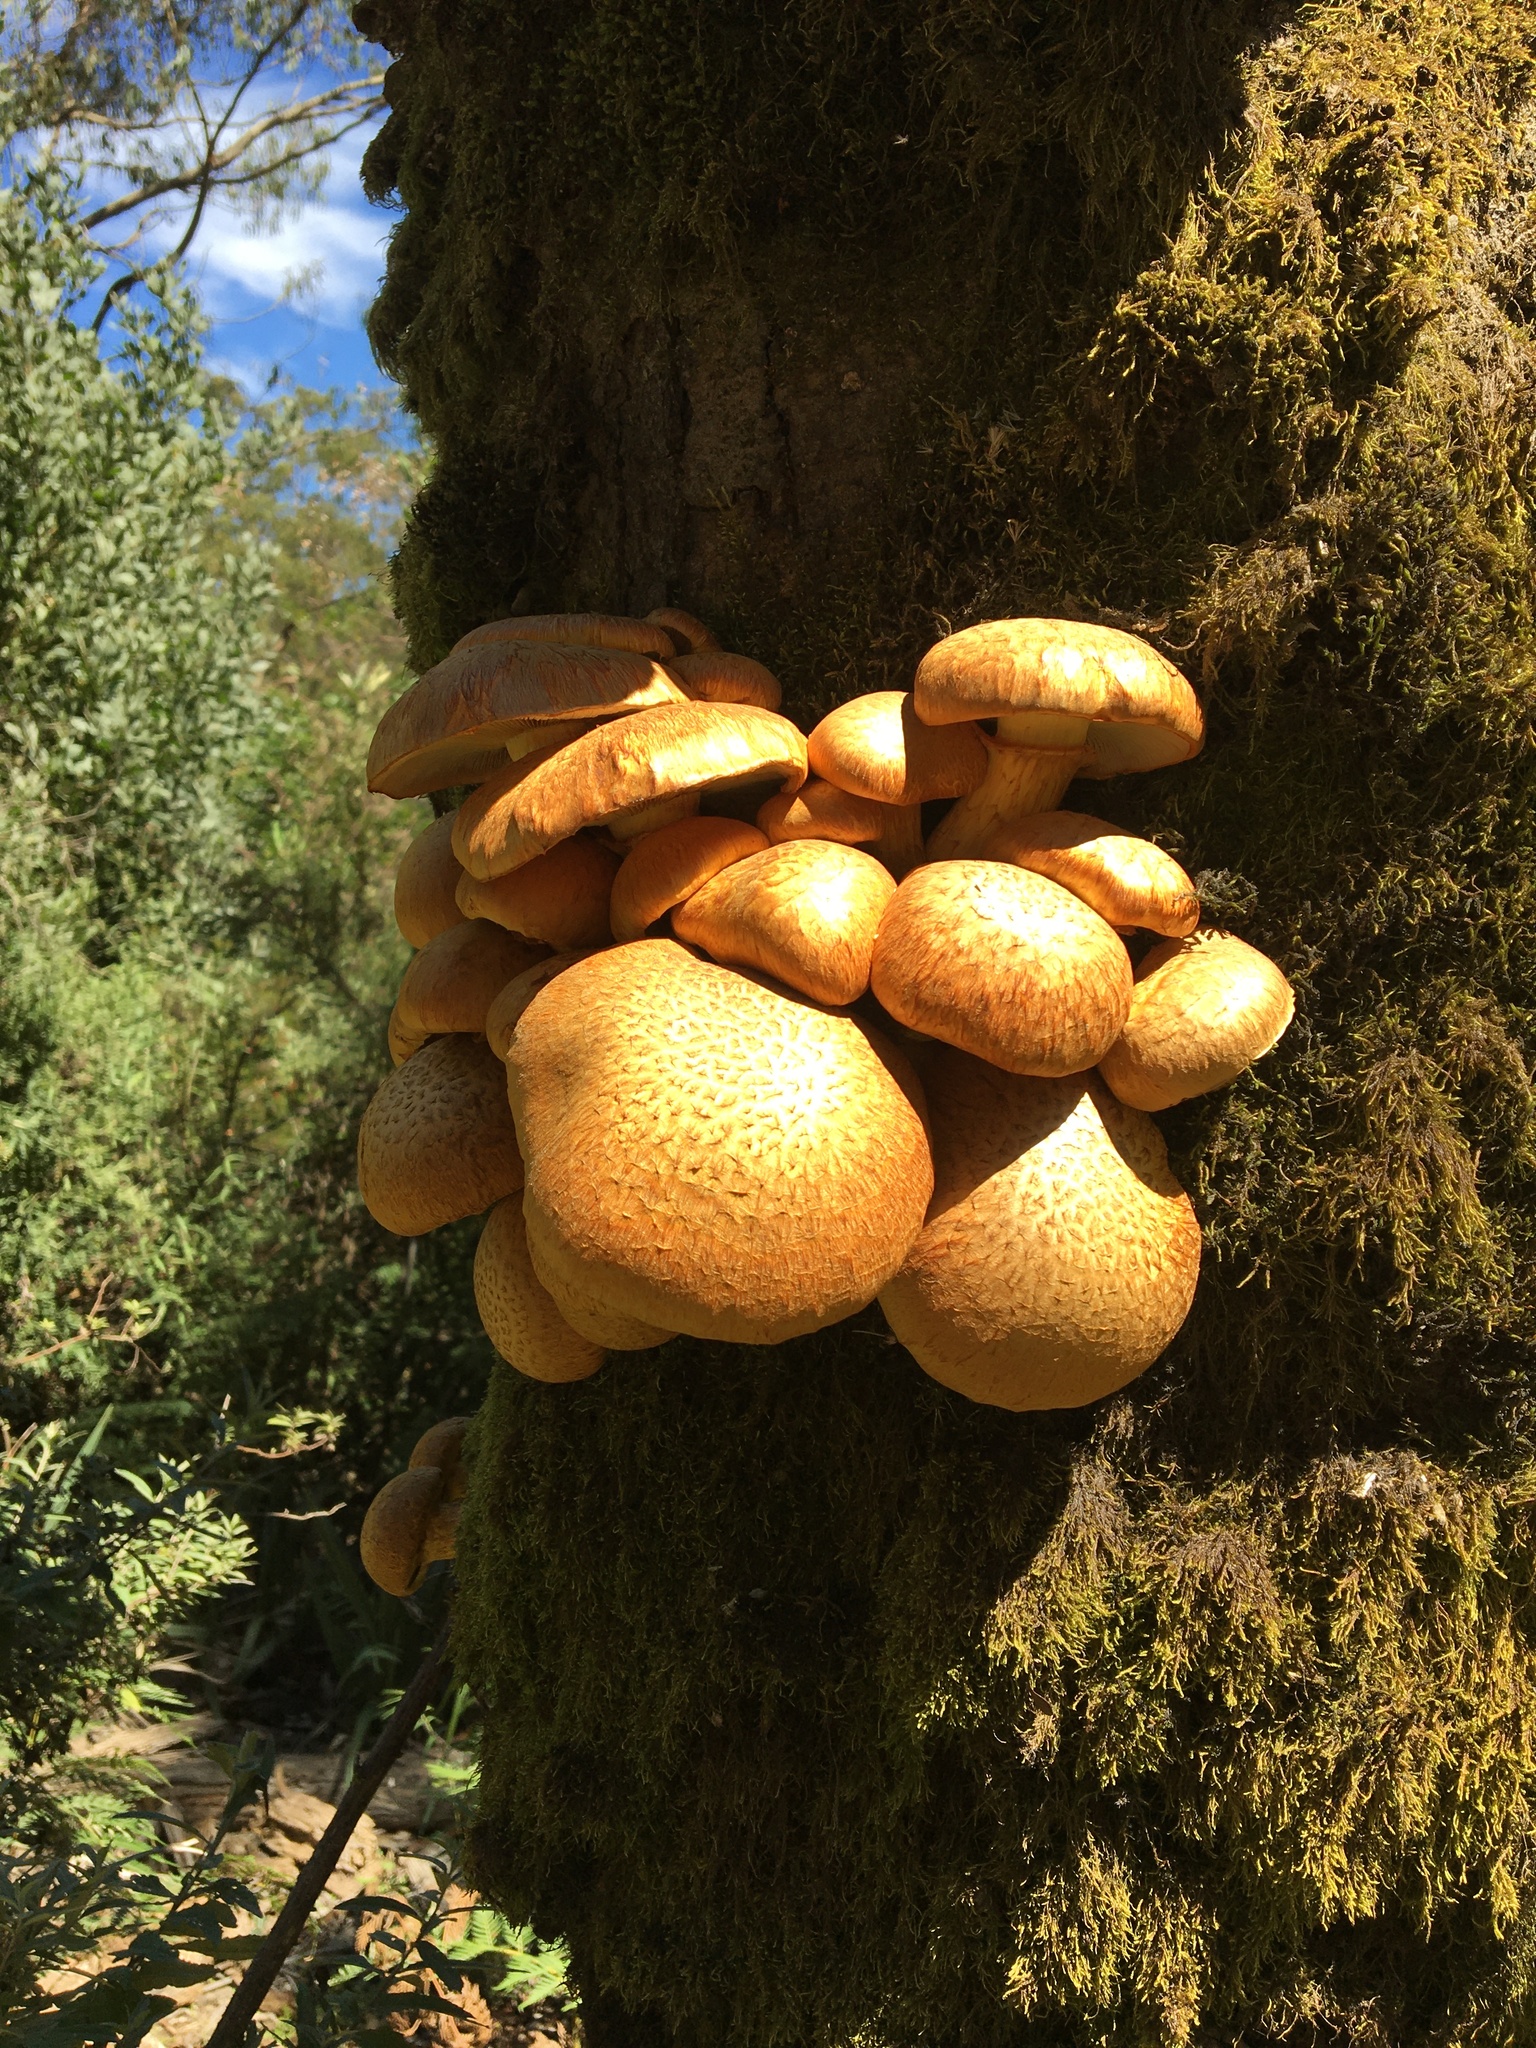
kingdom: Fungi
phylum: Basidiomycota
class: Agaricomycetes
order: Agaricales
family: Hymenogastraceae
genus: Gymnopilus
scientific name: Gymnopilus junonius
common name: Spectacular rustgill
